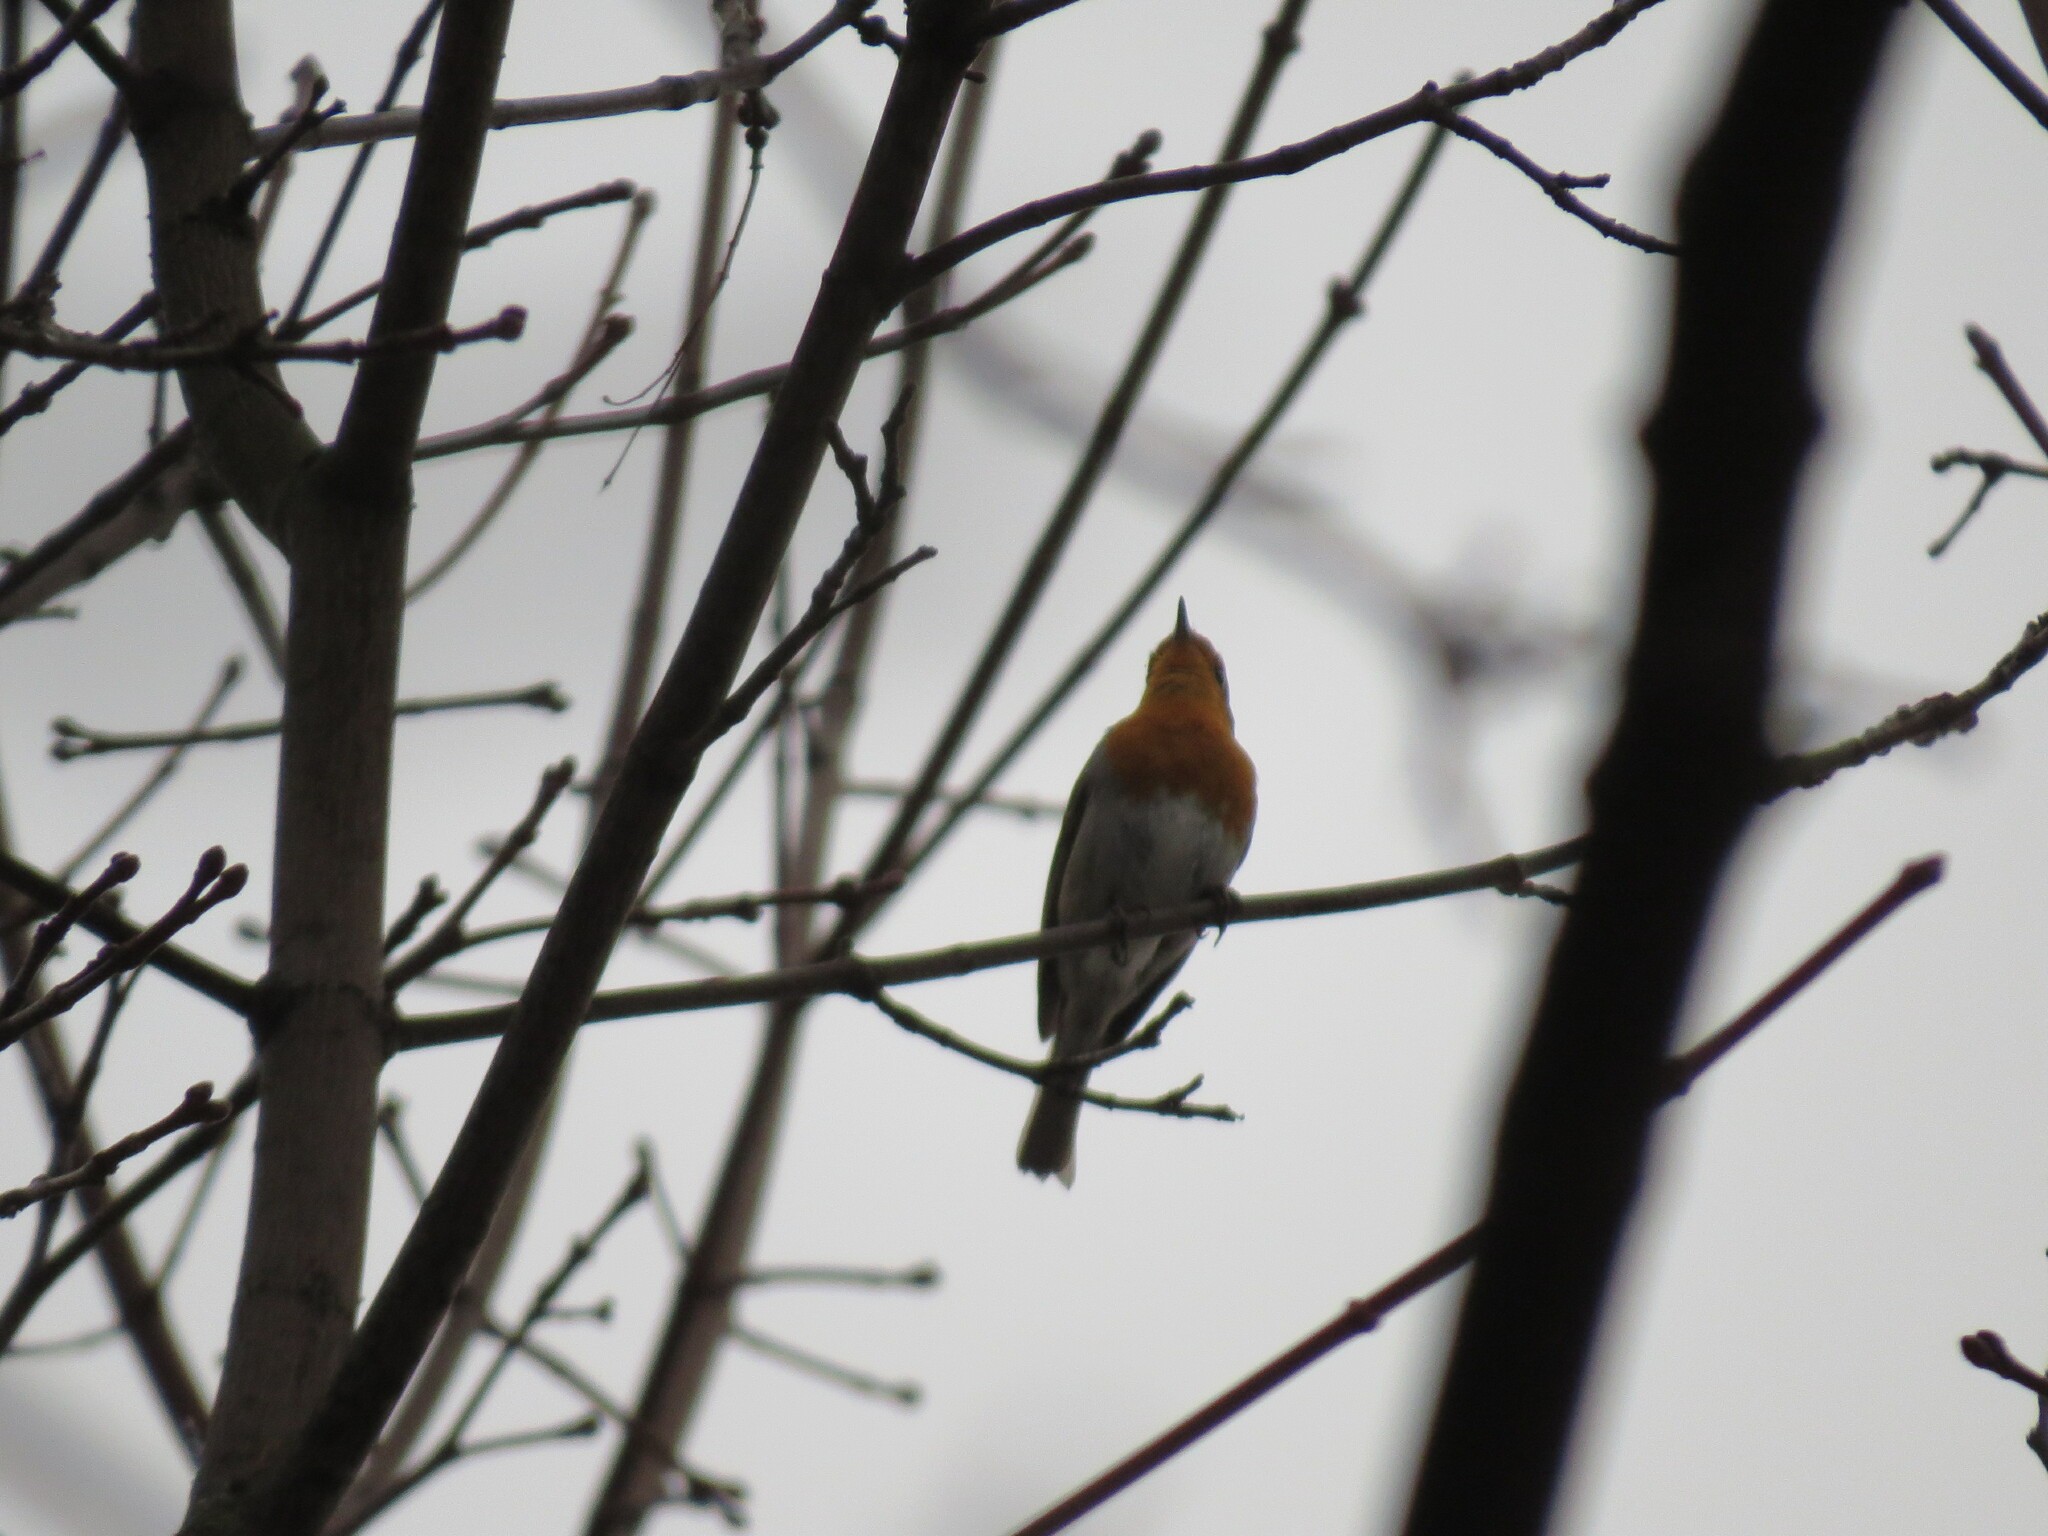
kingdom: Animalia
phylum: Chordata
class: Aves
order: Passeriformes
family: Muscicapidae
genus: Erithacus
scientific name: Erithacus rubecula
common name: European robin
